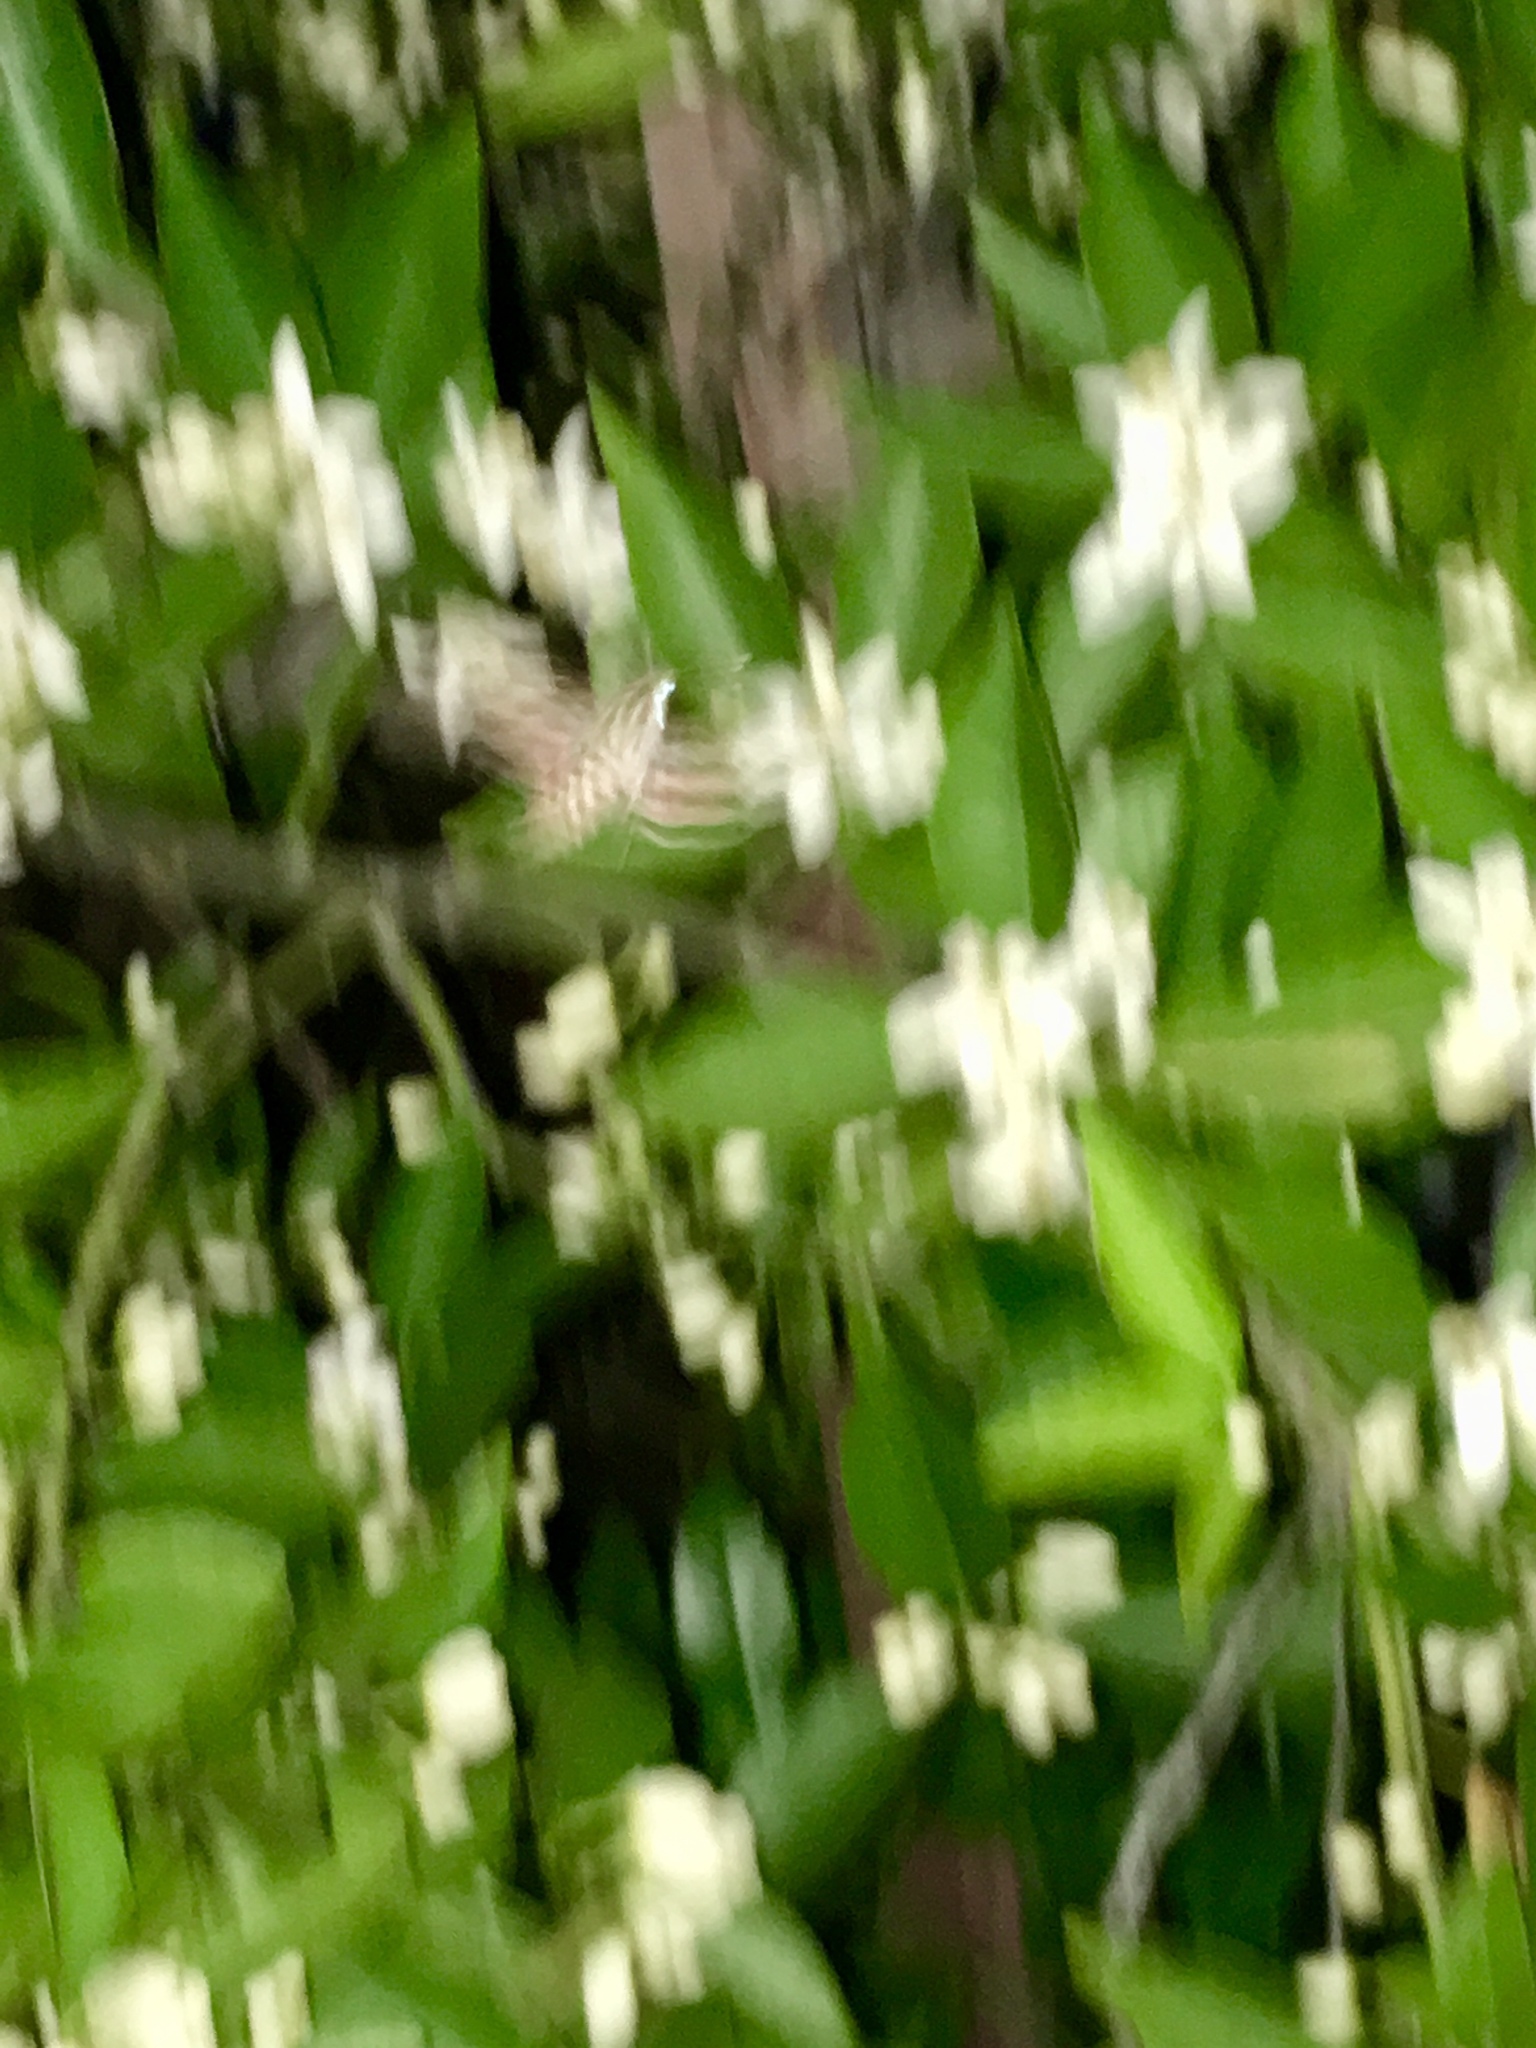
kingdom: Animalia
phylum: Arthropoda
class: Insecta
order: Lepidoptera
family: Sphingidae
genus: Hyles
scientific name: Hyles lineata
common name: White-lined sphinx
